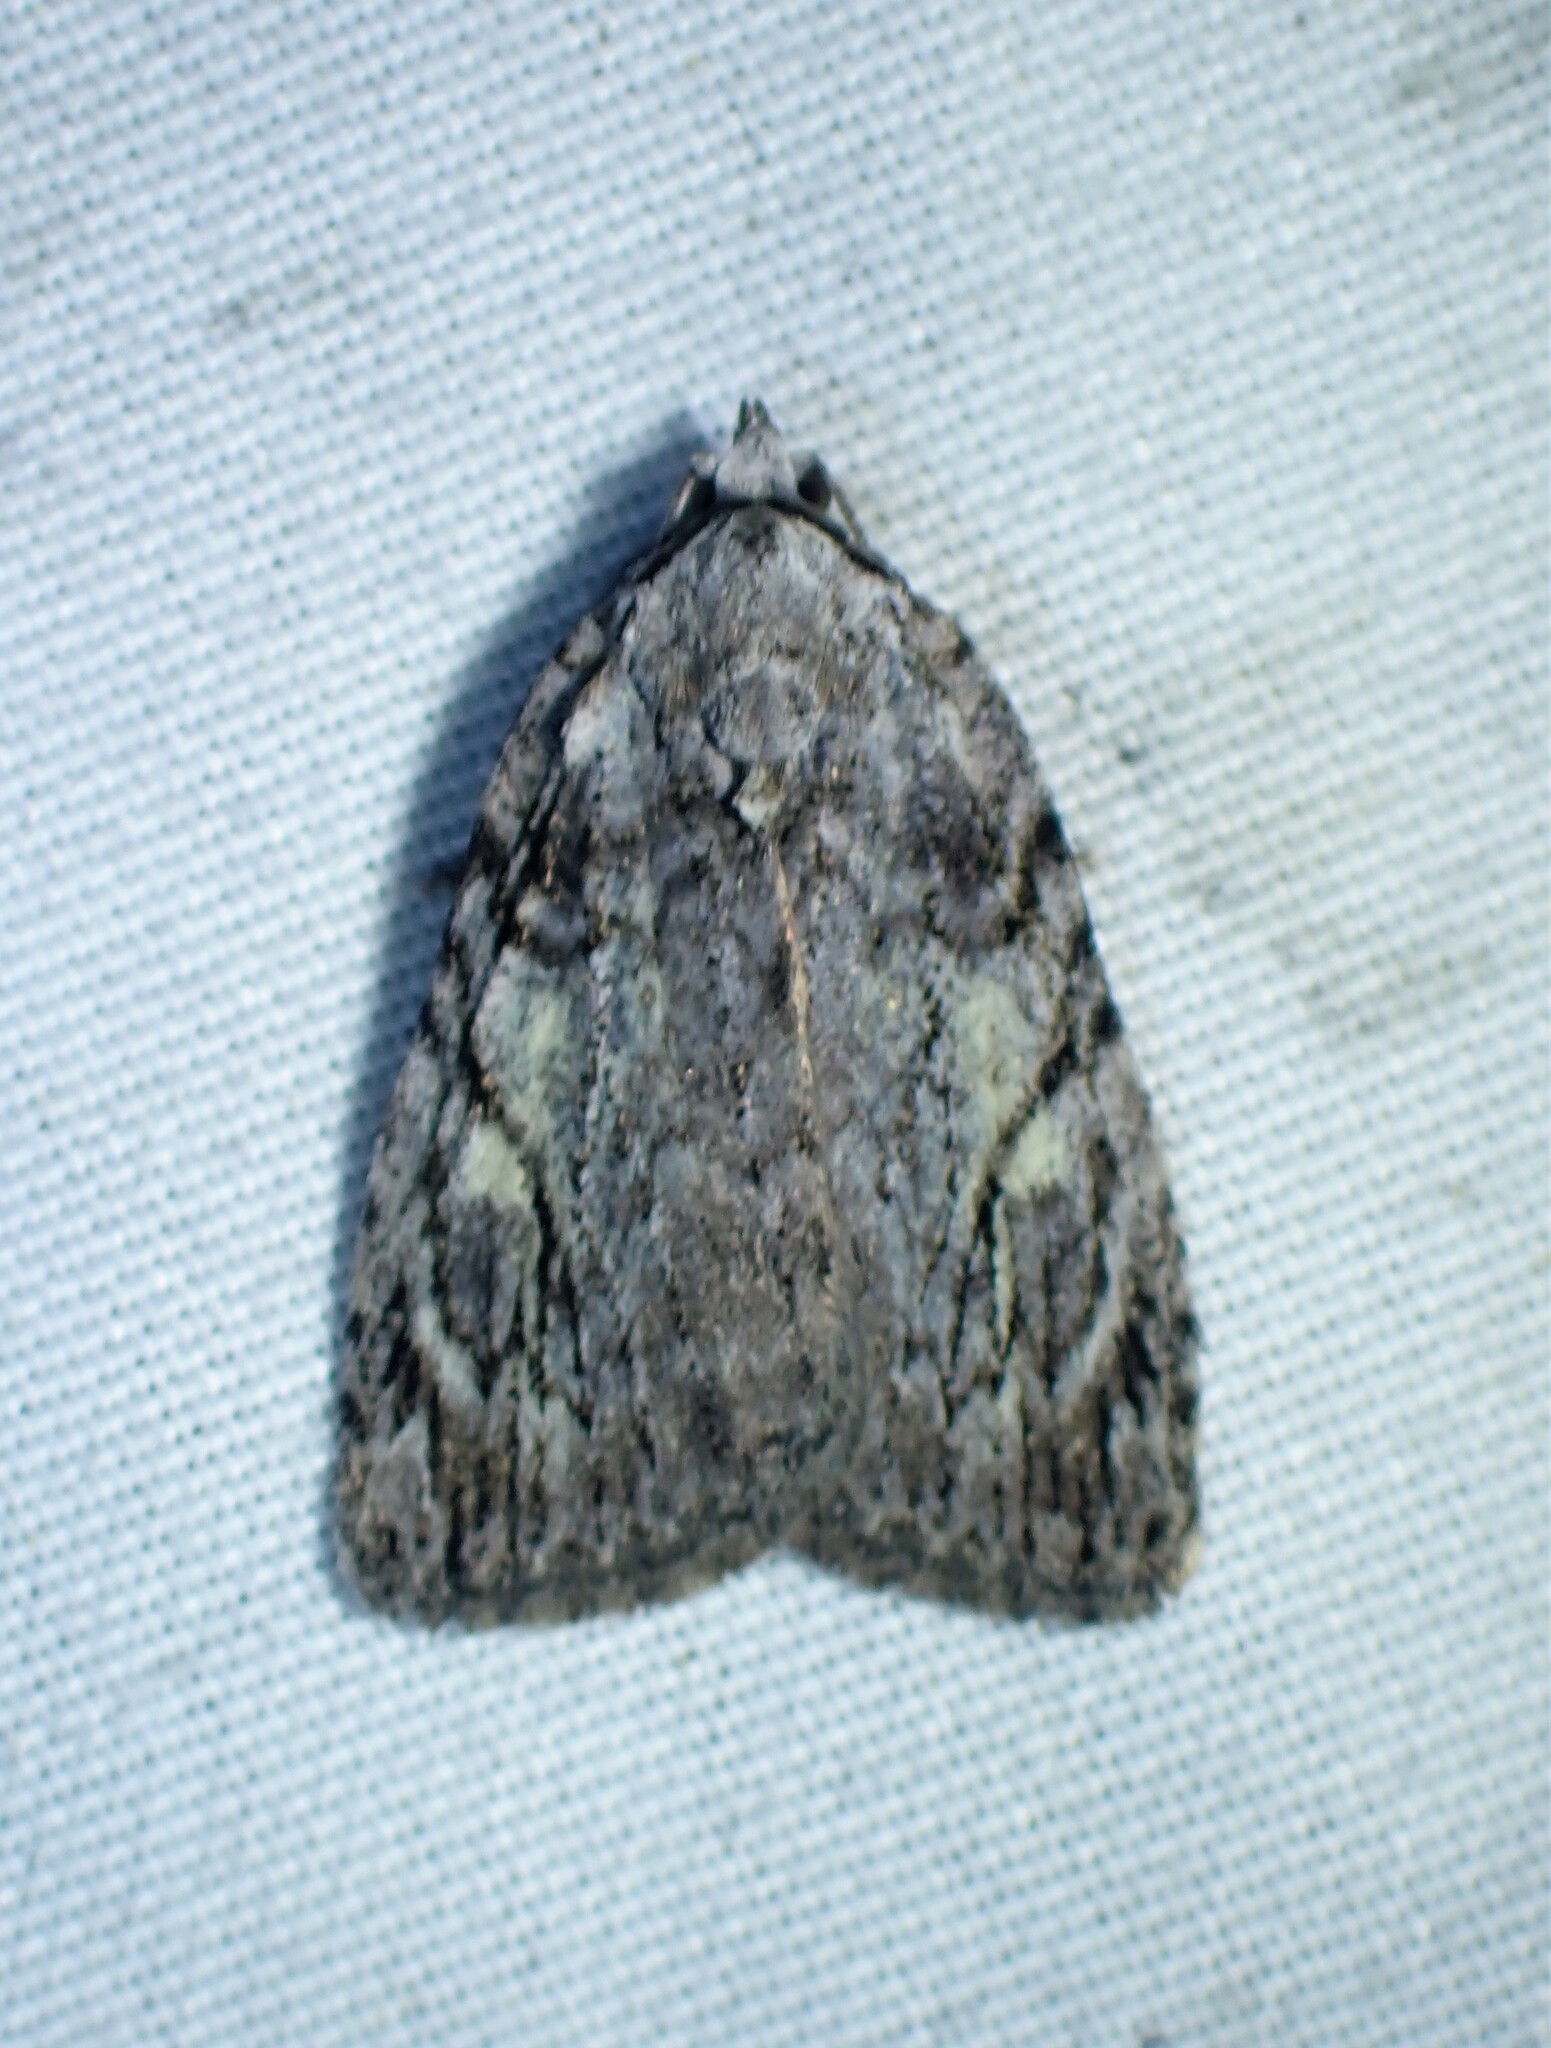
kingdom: Animalia
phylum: Arthropoda
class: Insecta
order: Lepidoptera
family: Noctuidae
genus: Balsa
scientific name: Balsa labecula
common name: White-blotched balsa moth
